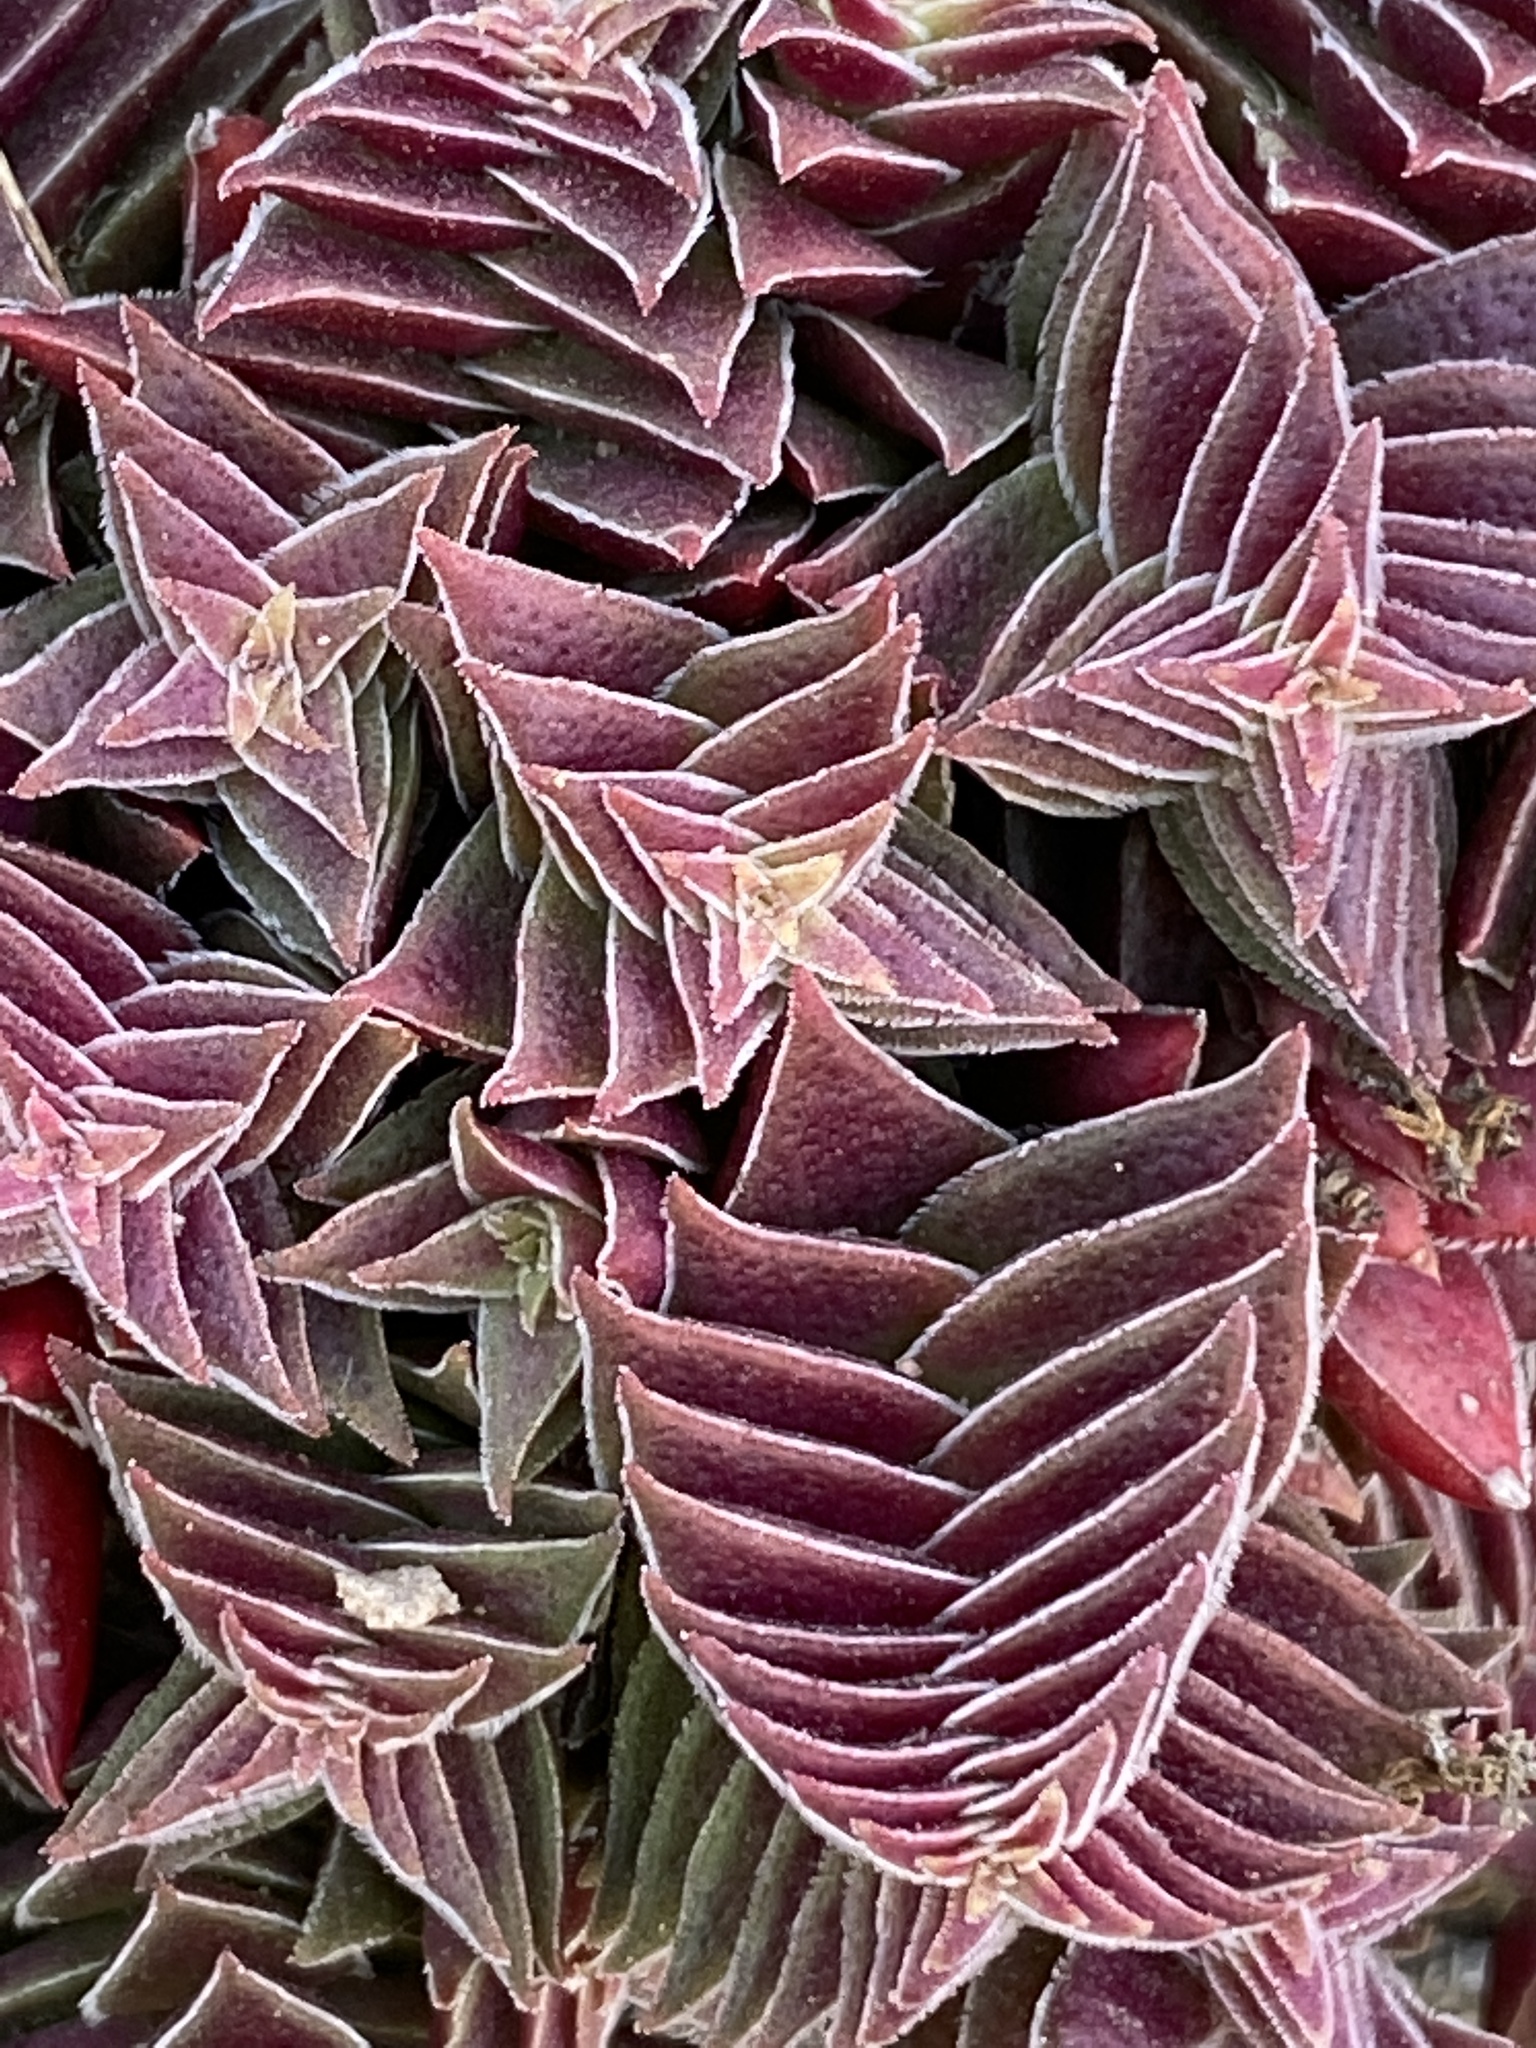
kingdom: Plantae
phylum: Tracheophyta
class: Magnoliopsida
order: Saxifragales
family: Crassulaceae
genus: Crassula
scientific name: Crassula capitella
